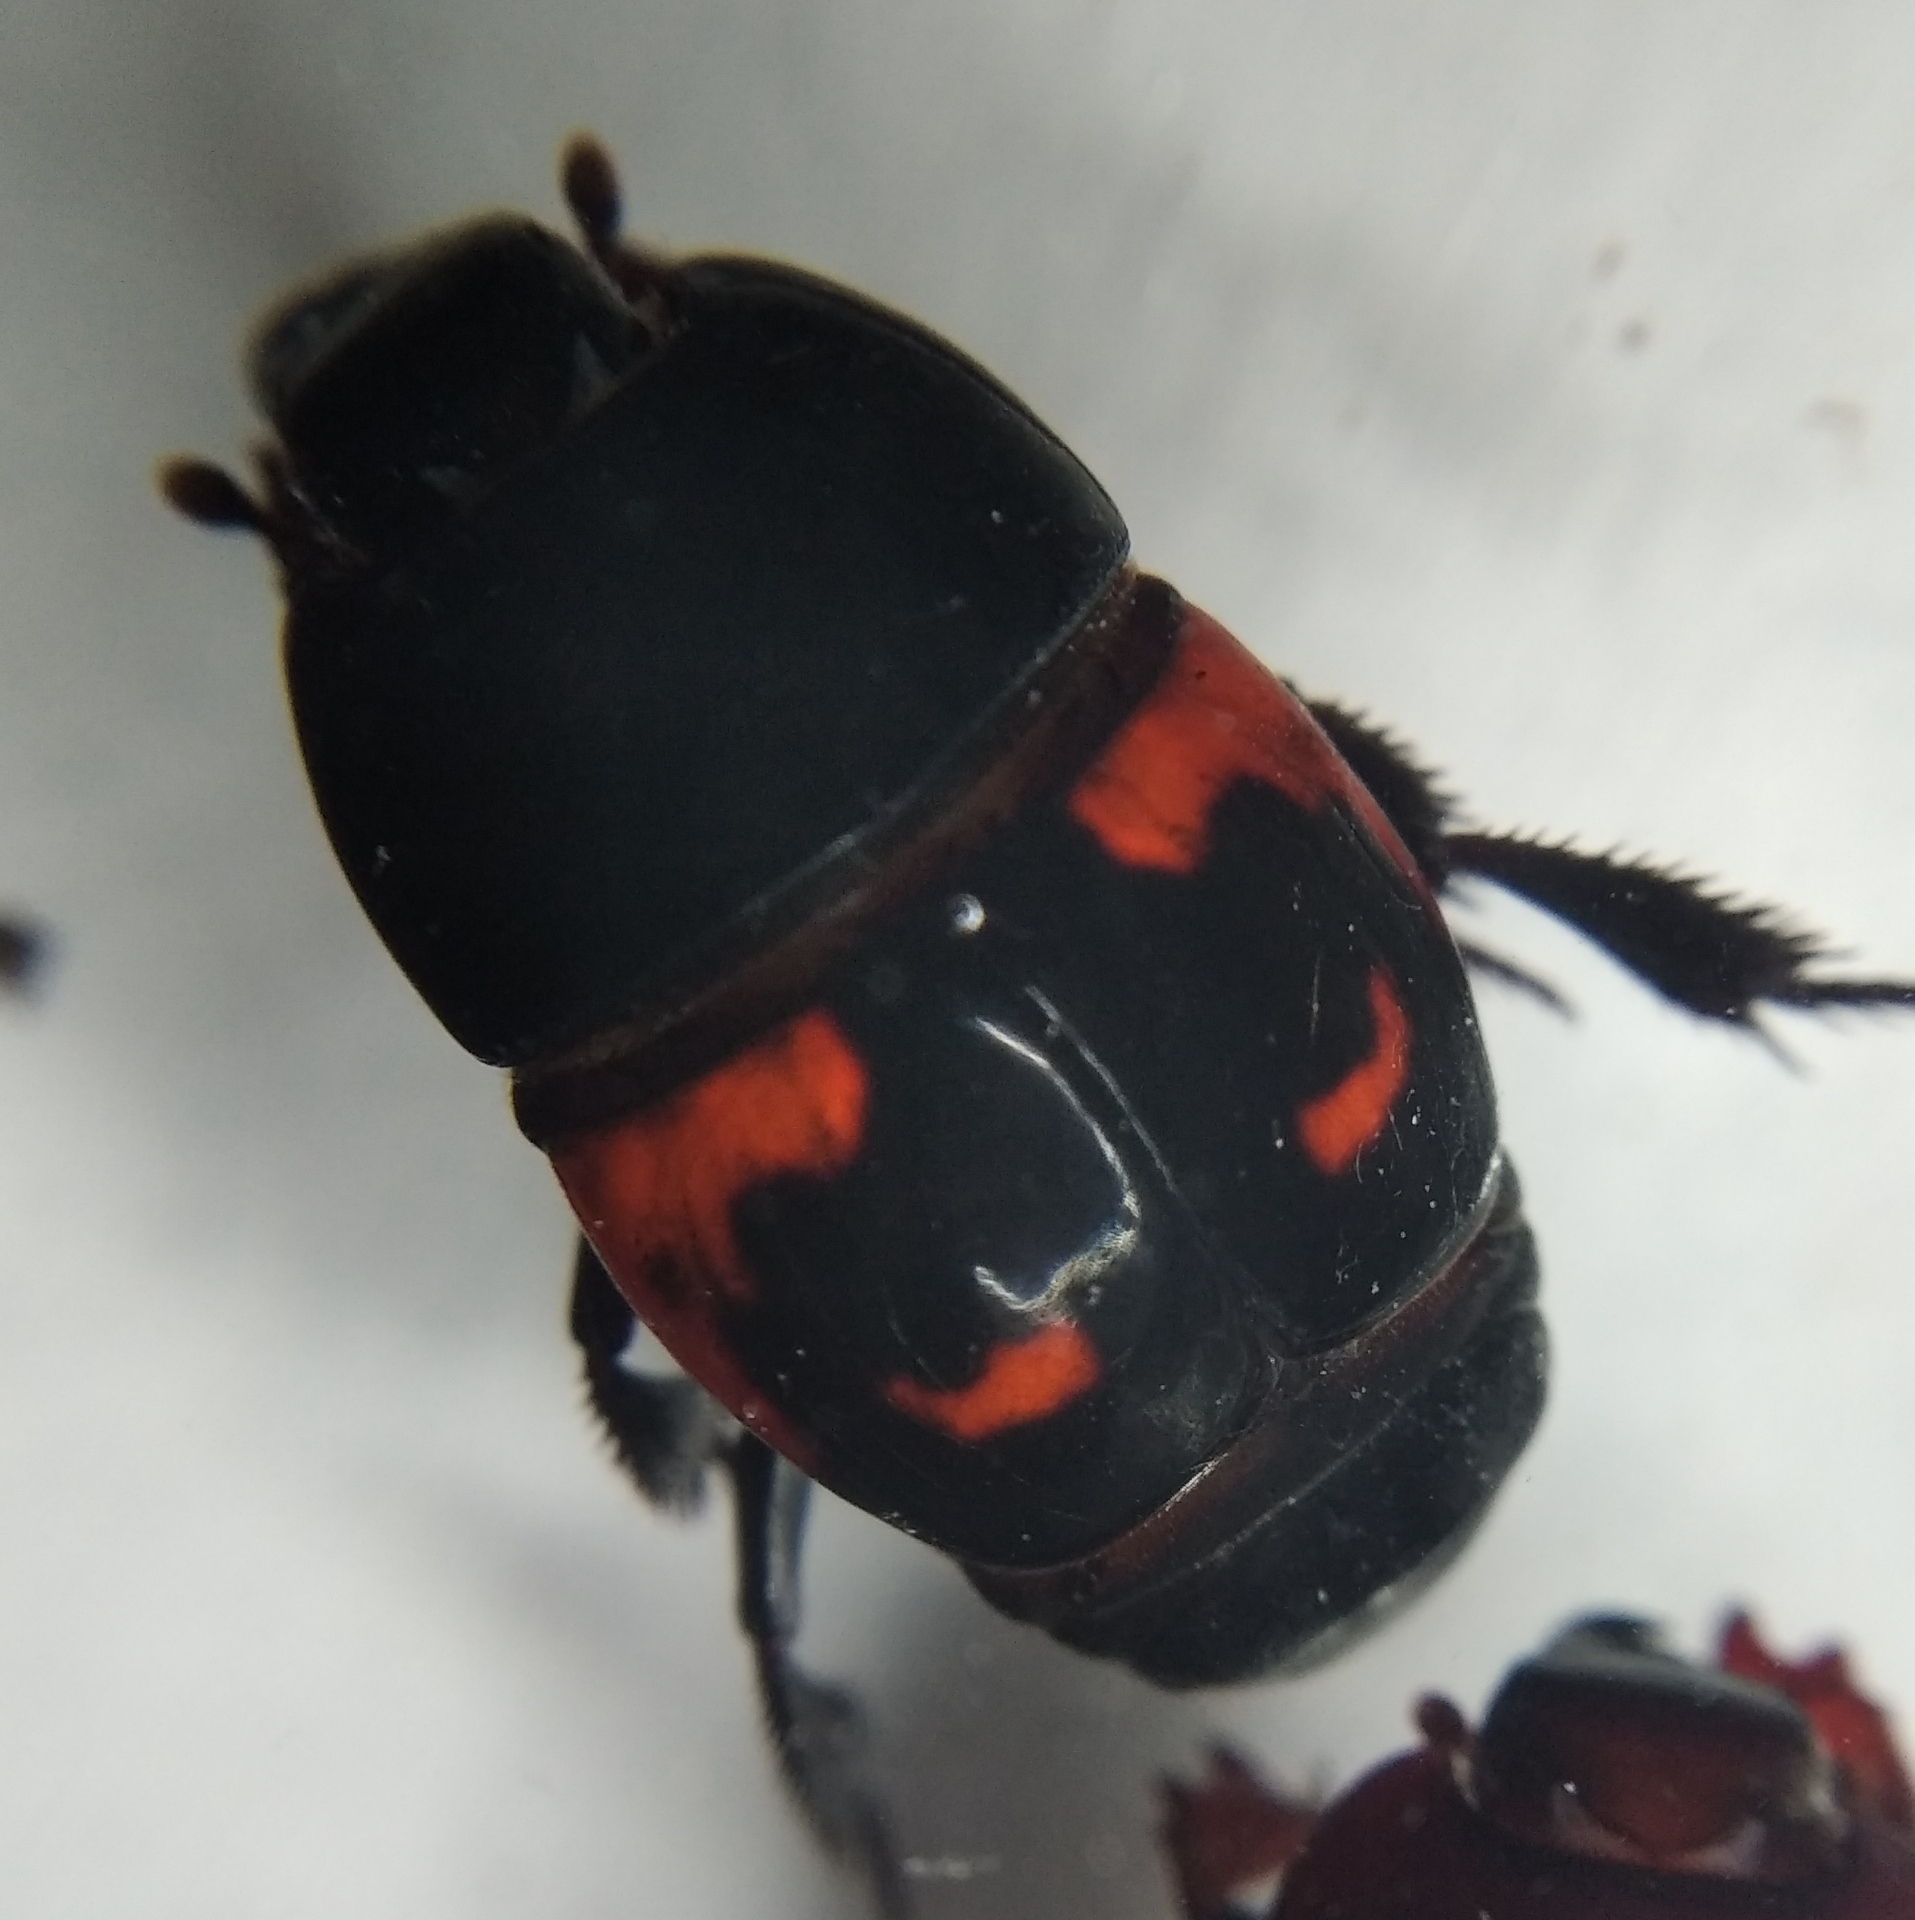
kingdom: Animalia
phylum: Arthropoda
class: Insecta
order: Coleoptera
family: Histeridae
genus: Hister
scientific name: Hister quadrimaculatus
